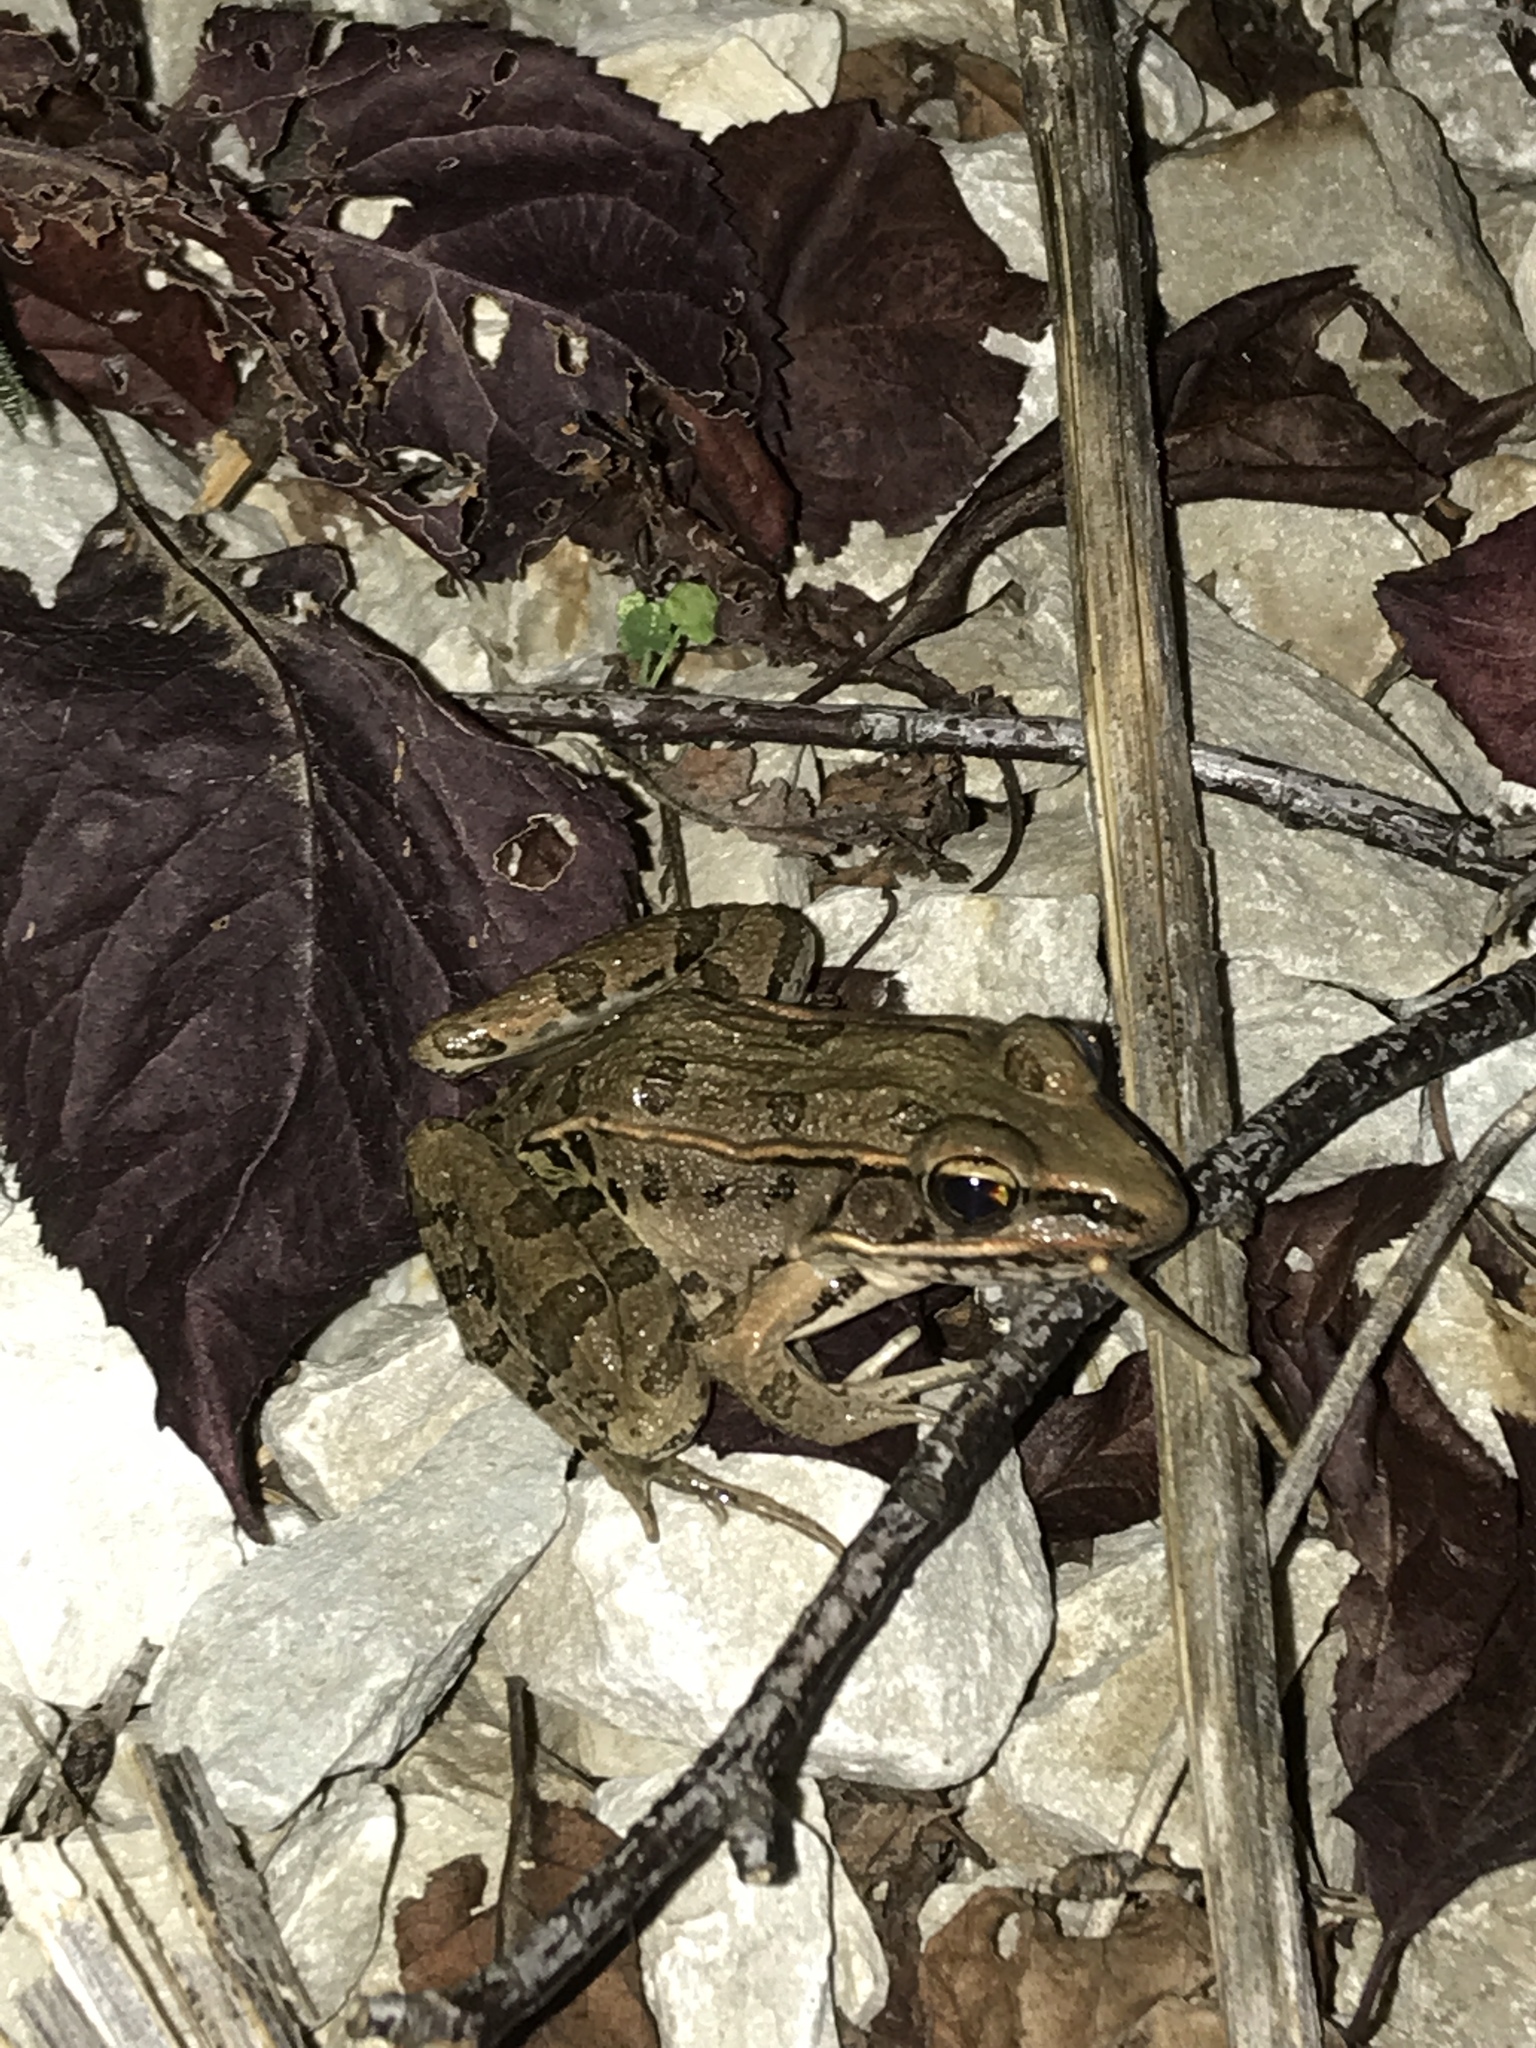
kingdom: Animalia
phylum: Chordata
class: Amphibia
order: Anura
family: Ranidae
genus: Lithobates
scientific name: Lithobates sphenocephalus
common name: Southern leopard frog
